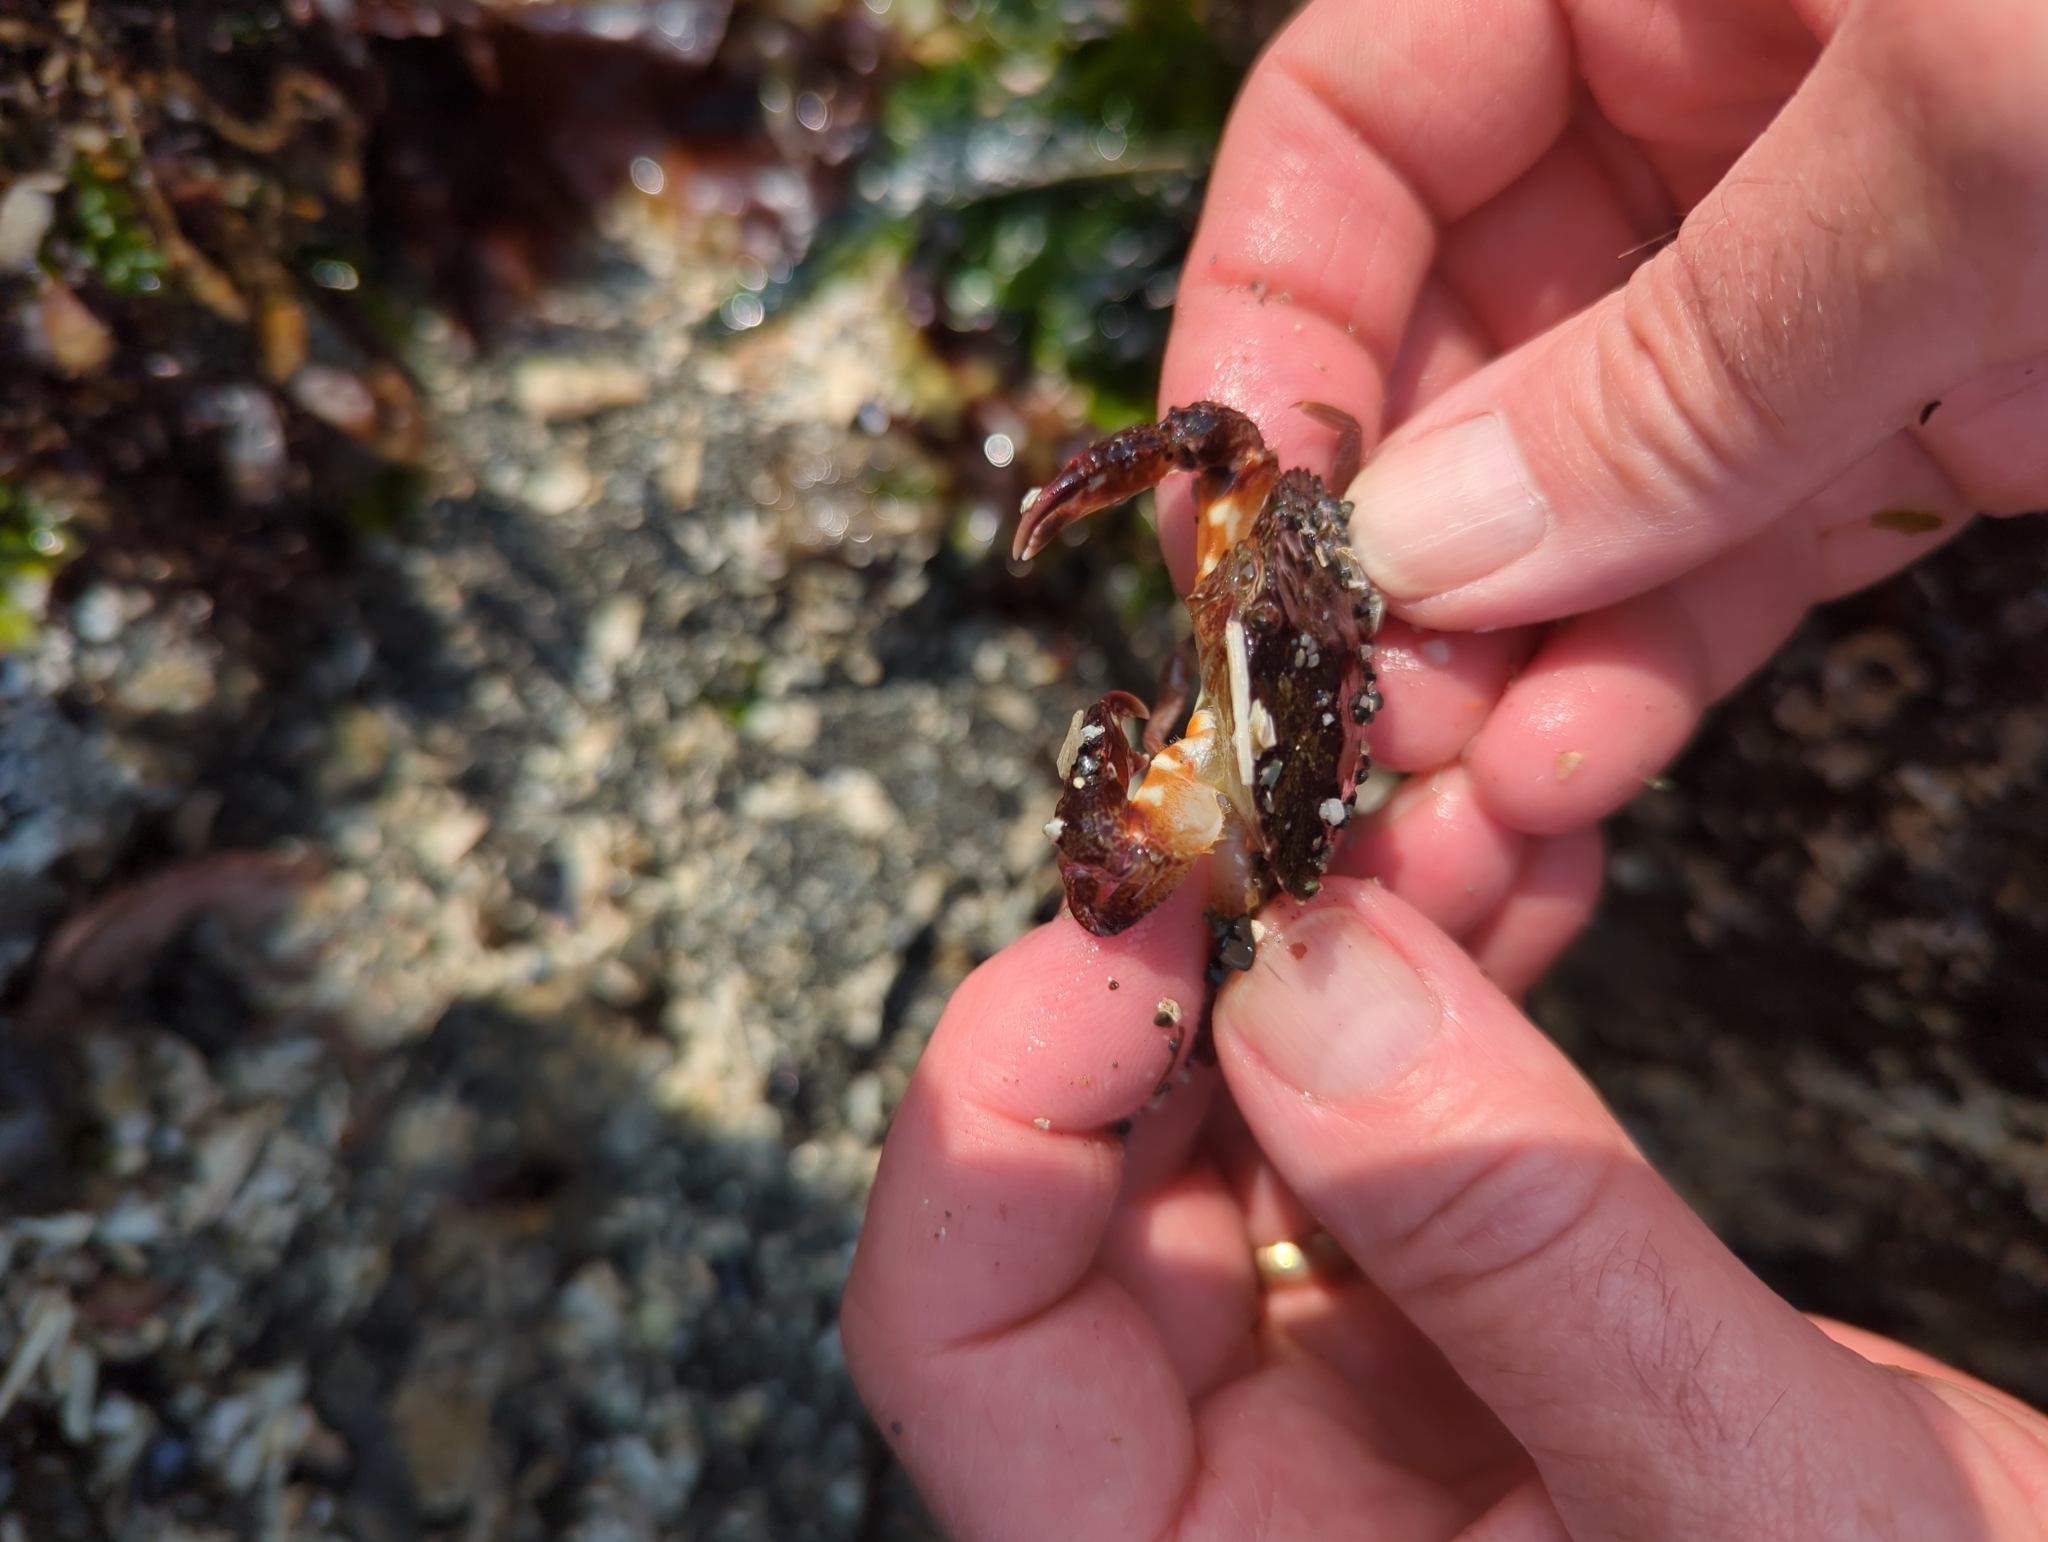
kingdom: Animalia
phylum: Arthropoda
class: Malacostraca
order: Decapoda
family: Cancridae
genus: Cancer
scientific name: Cancer productus
